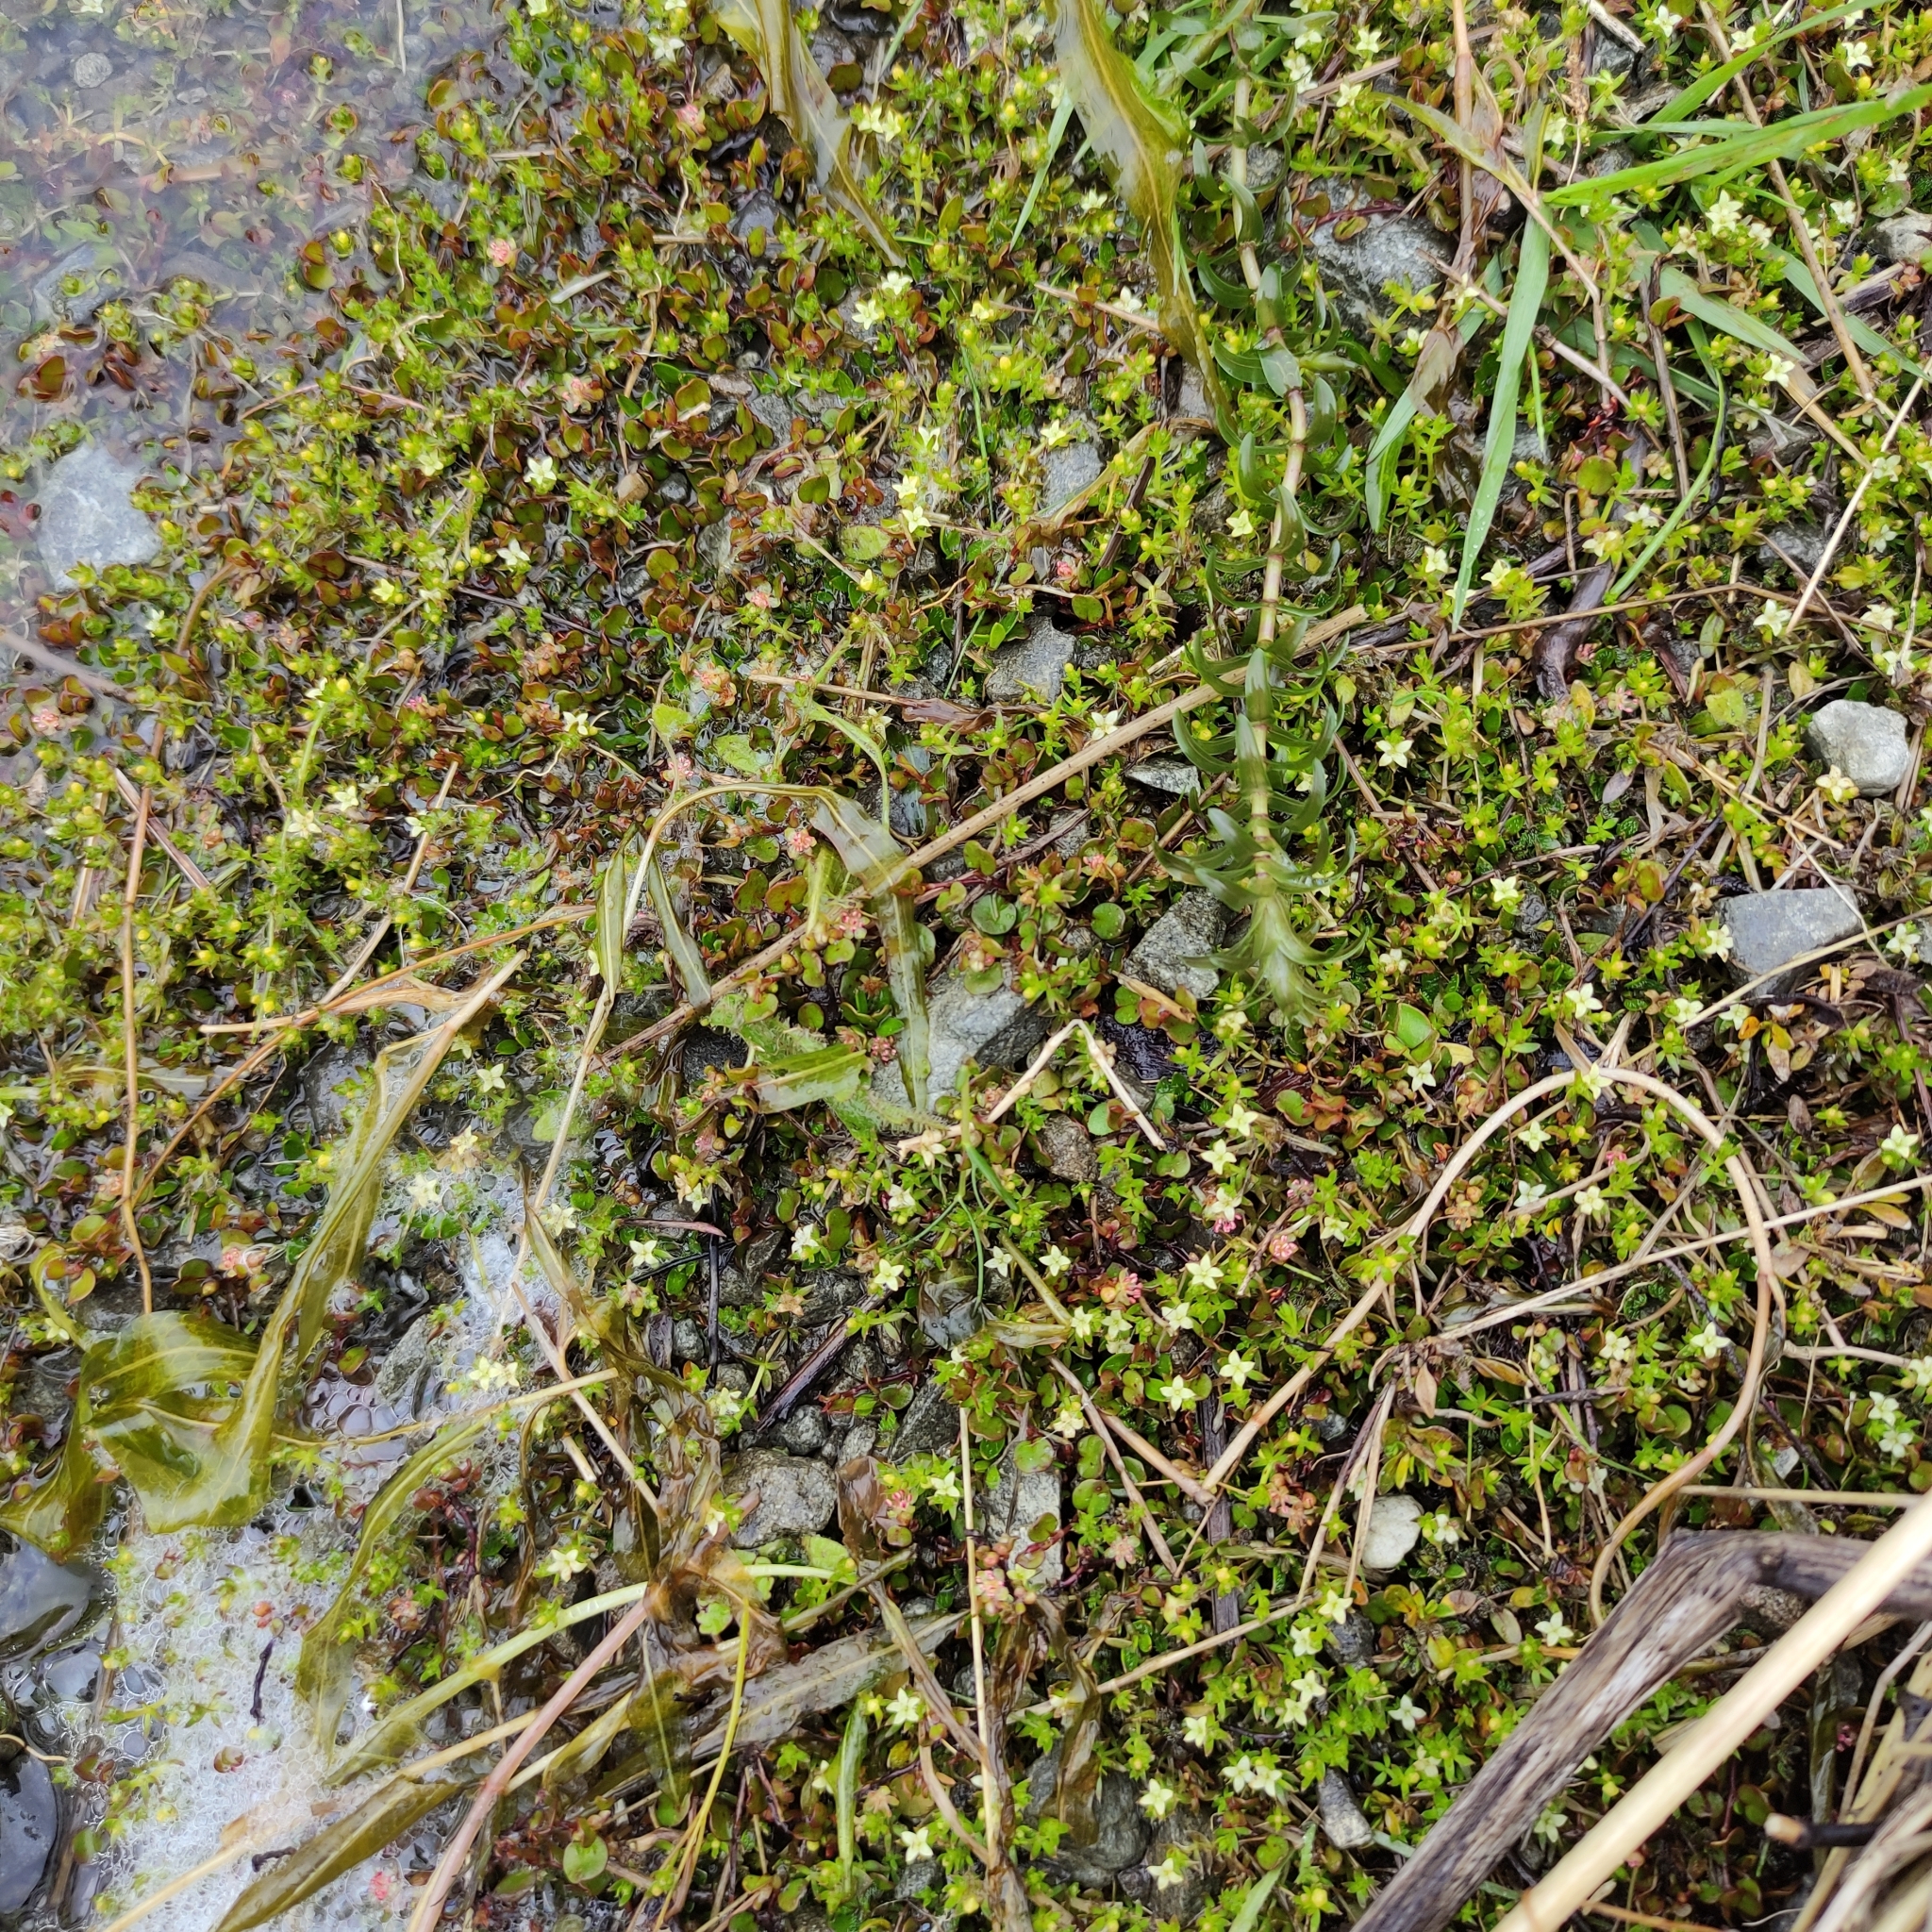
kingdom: Plantae
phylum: Tracheophyta
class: Magnoliopsida
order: Gentianales
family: Rubiaceae
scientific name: Rubiaceae
